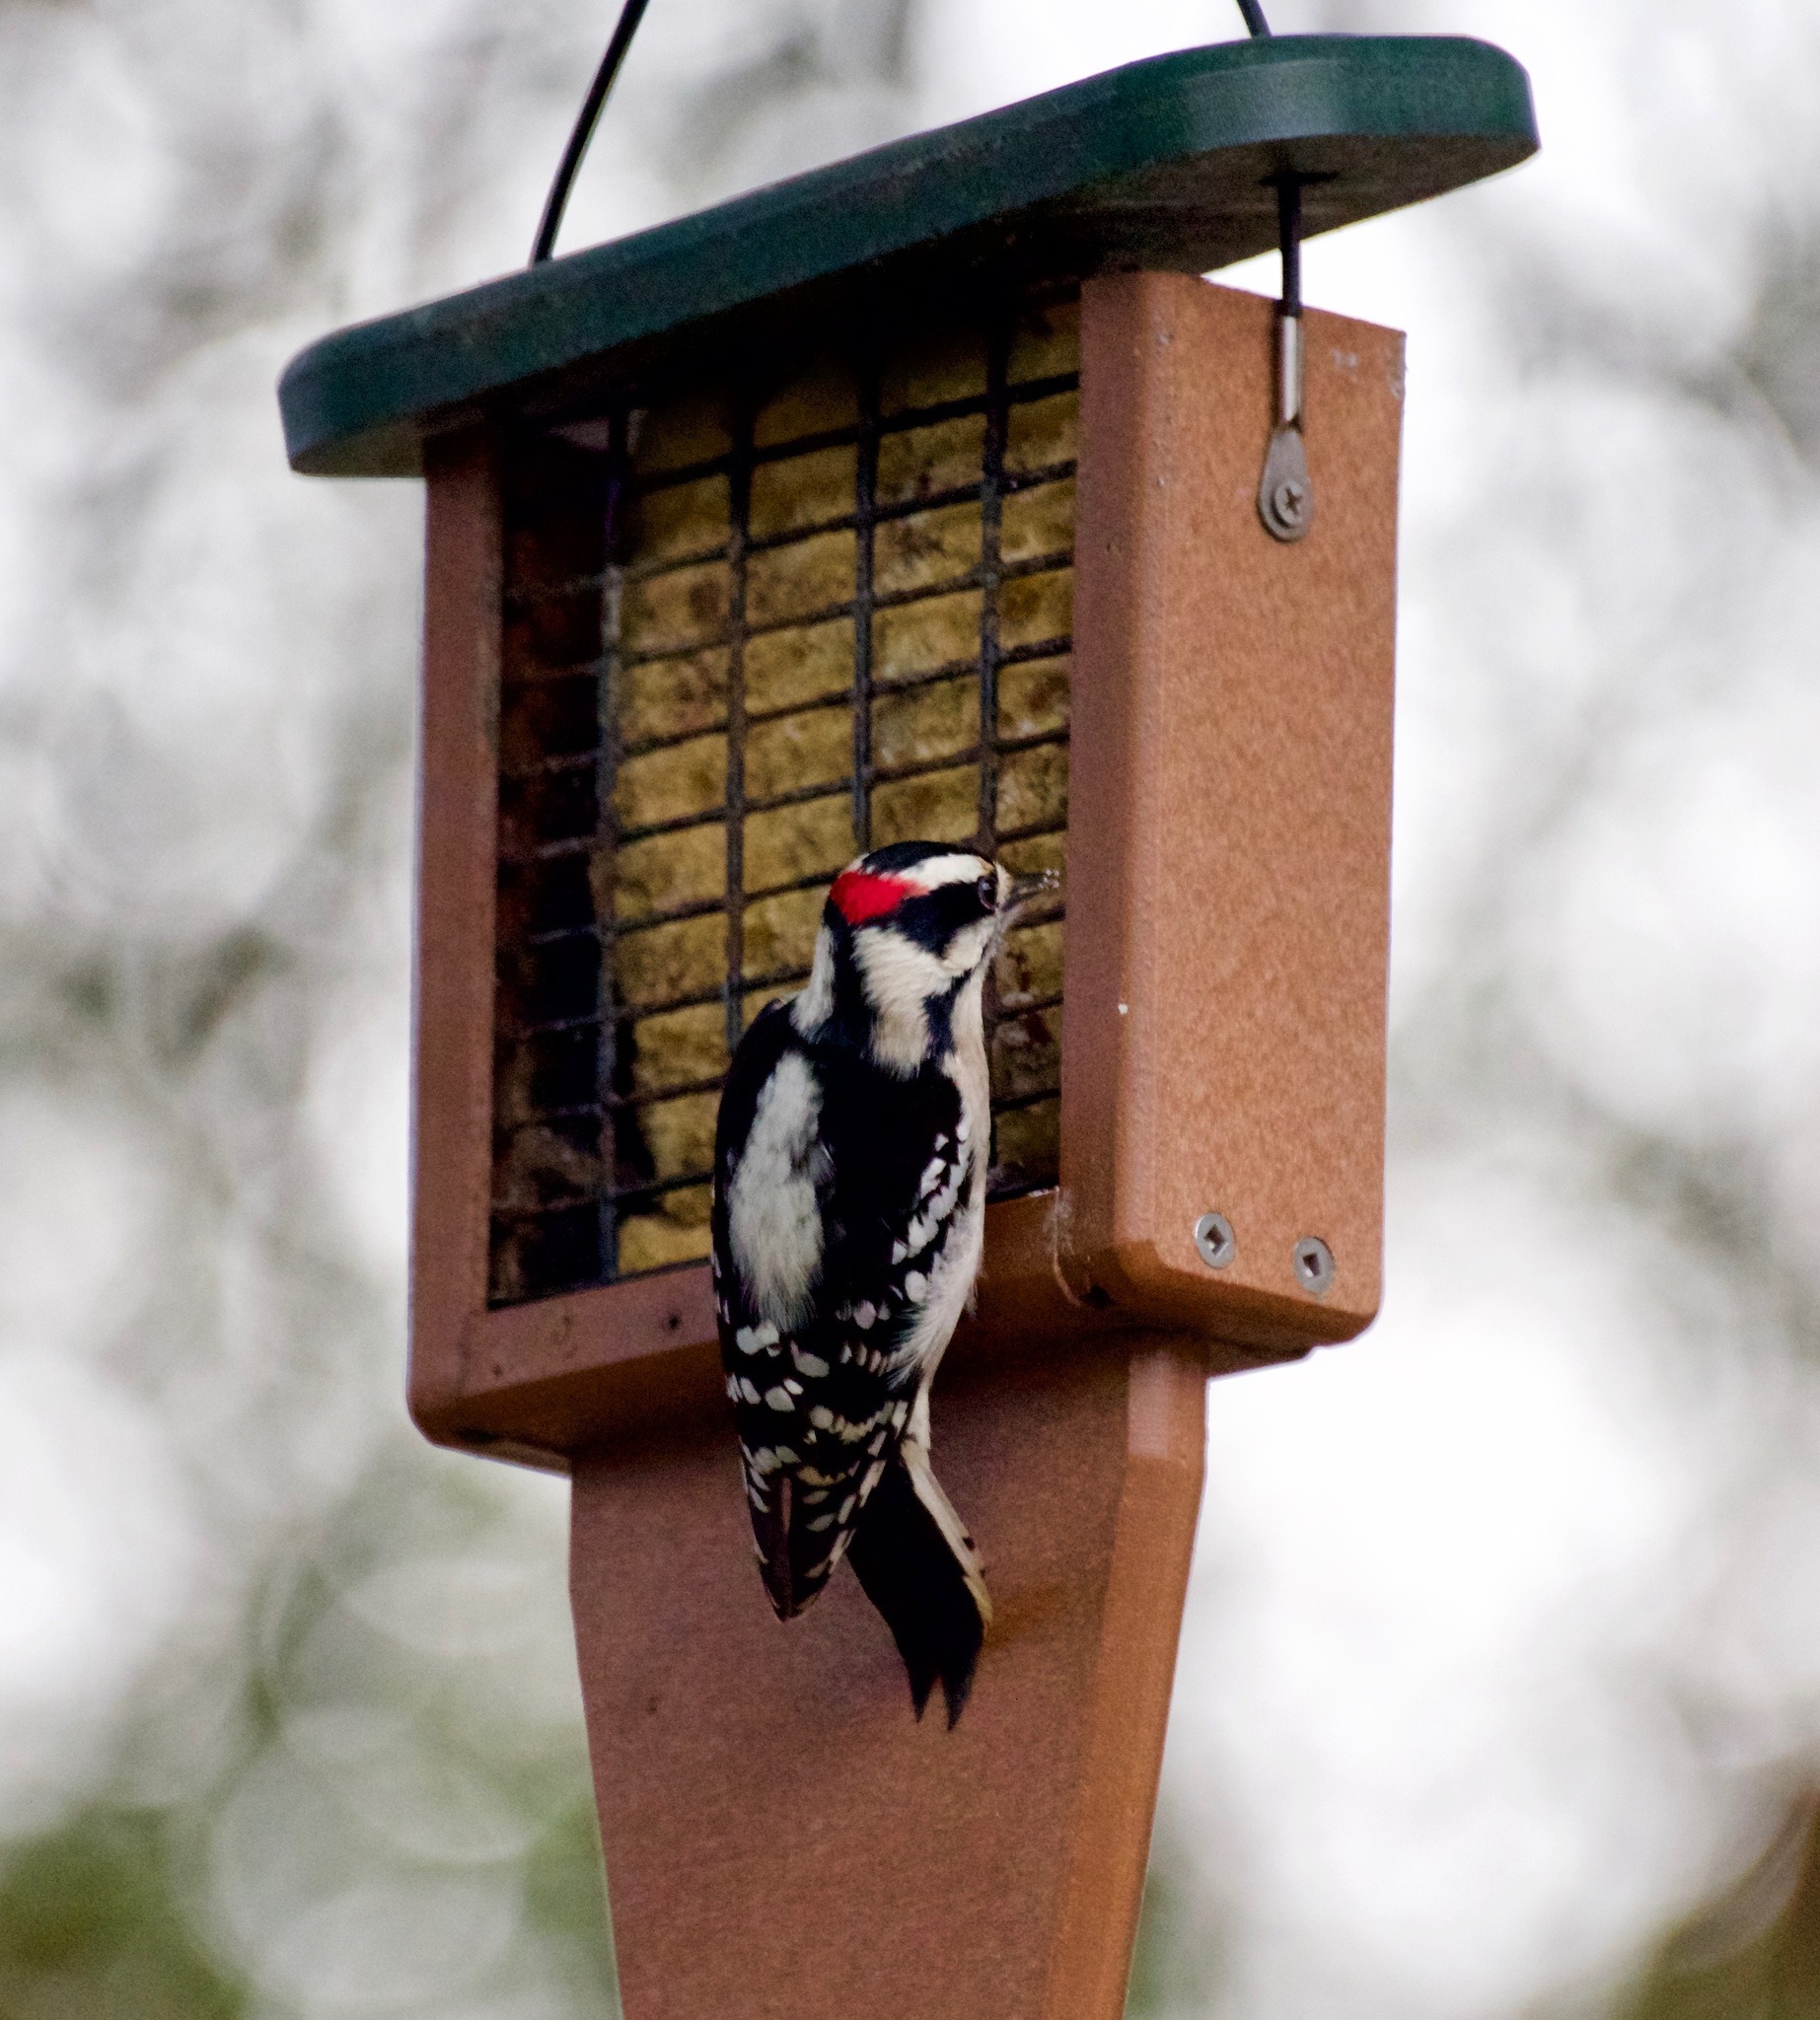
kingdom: Animalia
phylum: Chordata
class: Aves
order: Piciformes
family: Picidae
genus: Dryobates
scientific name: Dryobates pubescens
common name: Downy woodpecker
